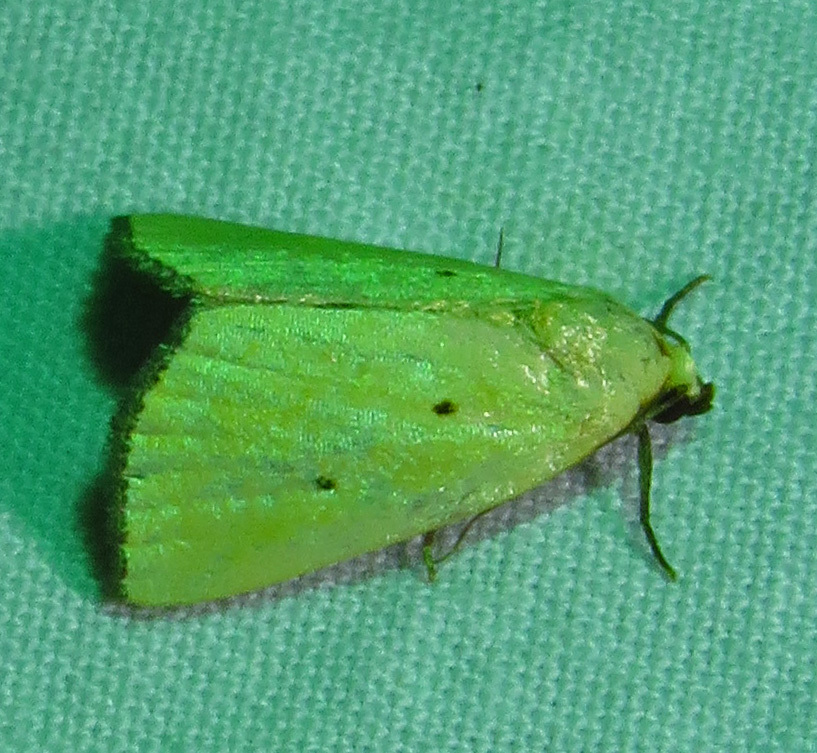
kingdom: Animalia
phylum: Arthropoda
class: Insecta
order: Lepidoptera
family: Noctuidae
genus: Marimatha
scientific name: Marimatha nigrofimbria
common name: Black-bordered lemon moth
